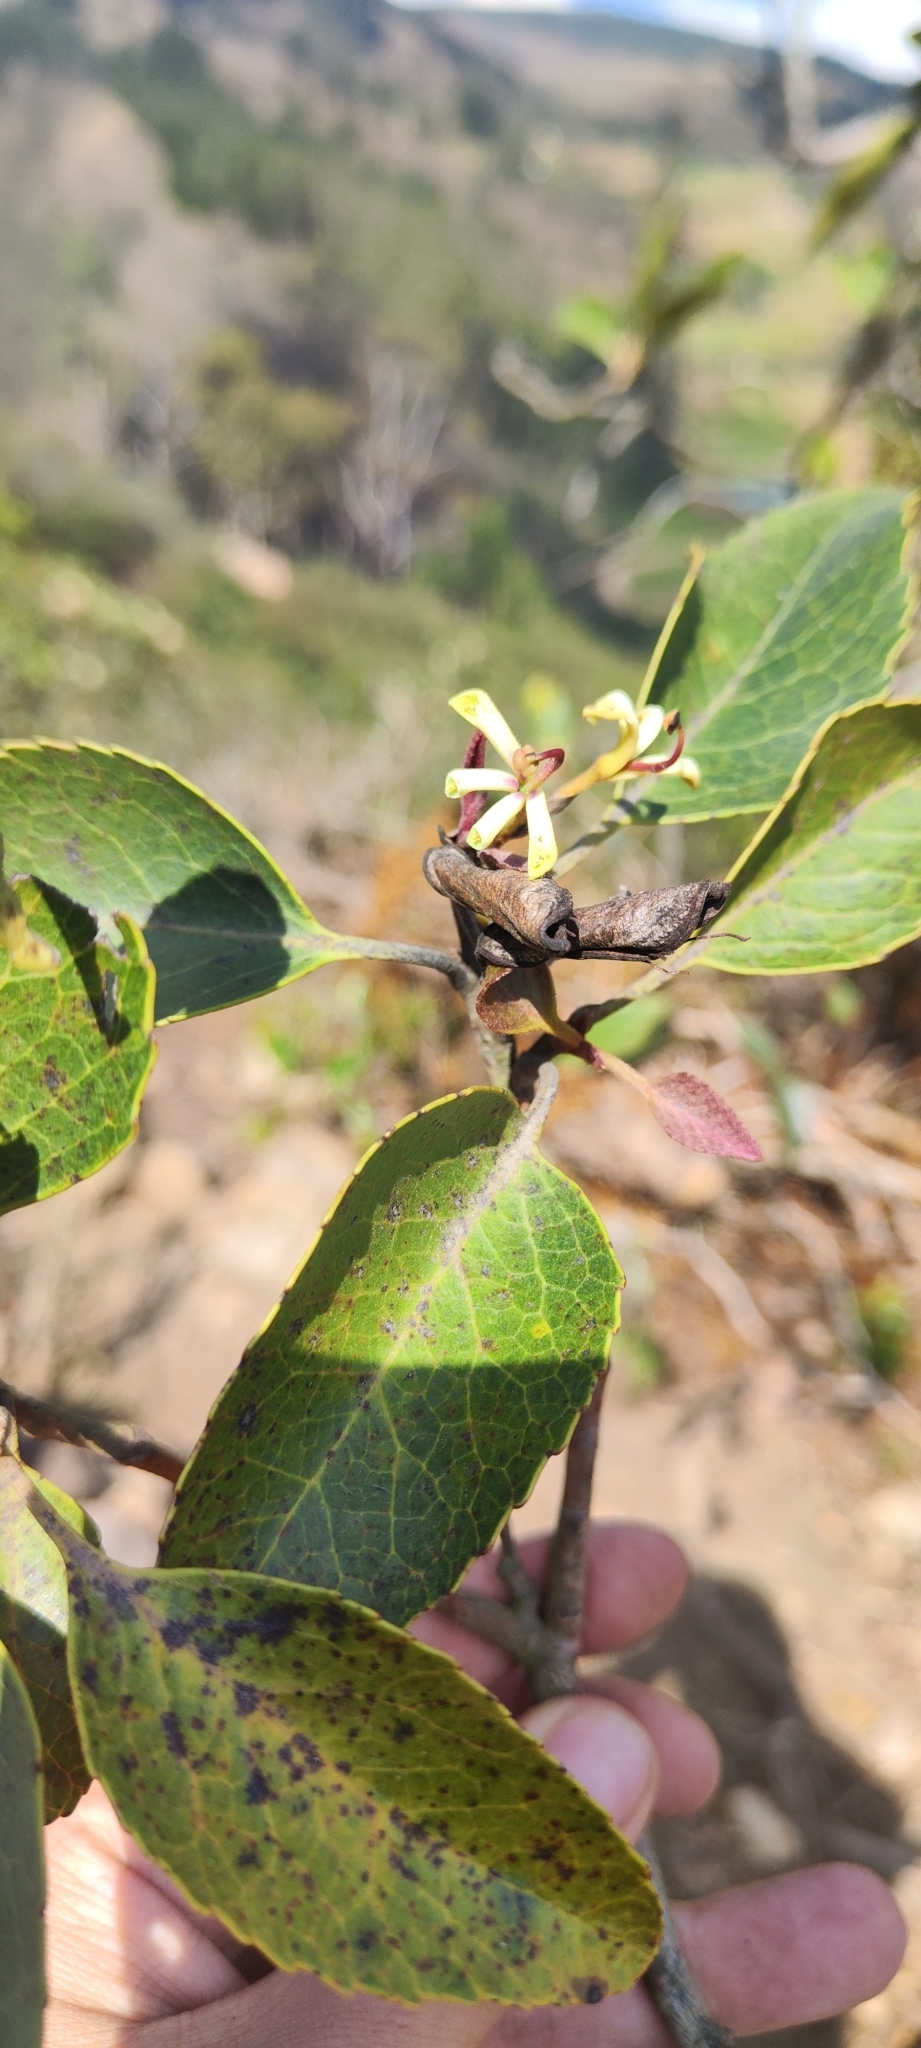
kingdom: Plantae
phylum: Tracheophyta
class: Magnoliopsida
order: Proteales
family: Proteaceae
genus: Lomatia
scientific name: Lomatia hirsuta
